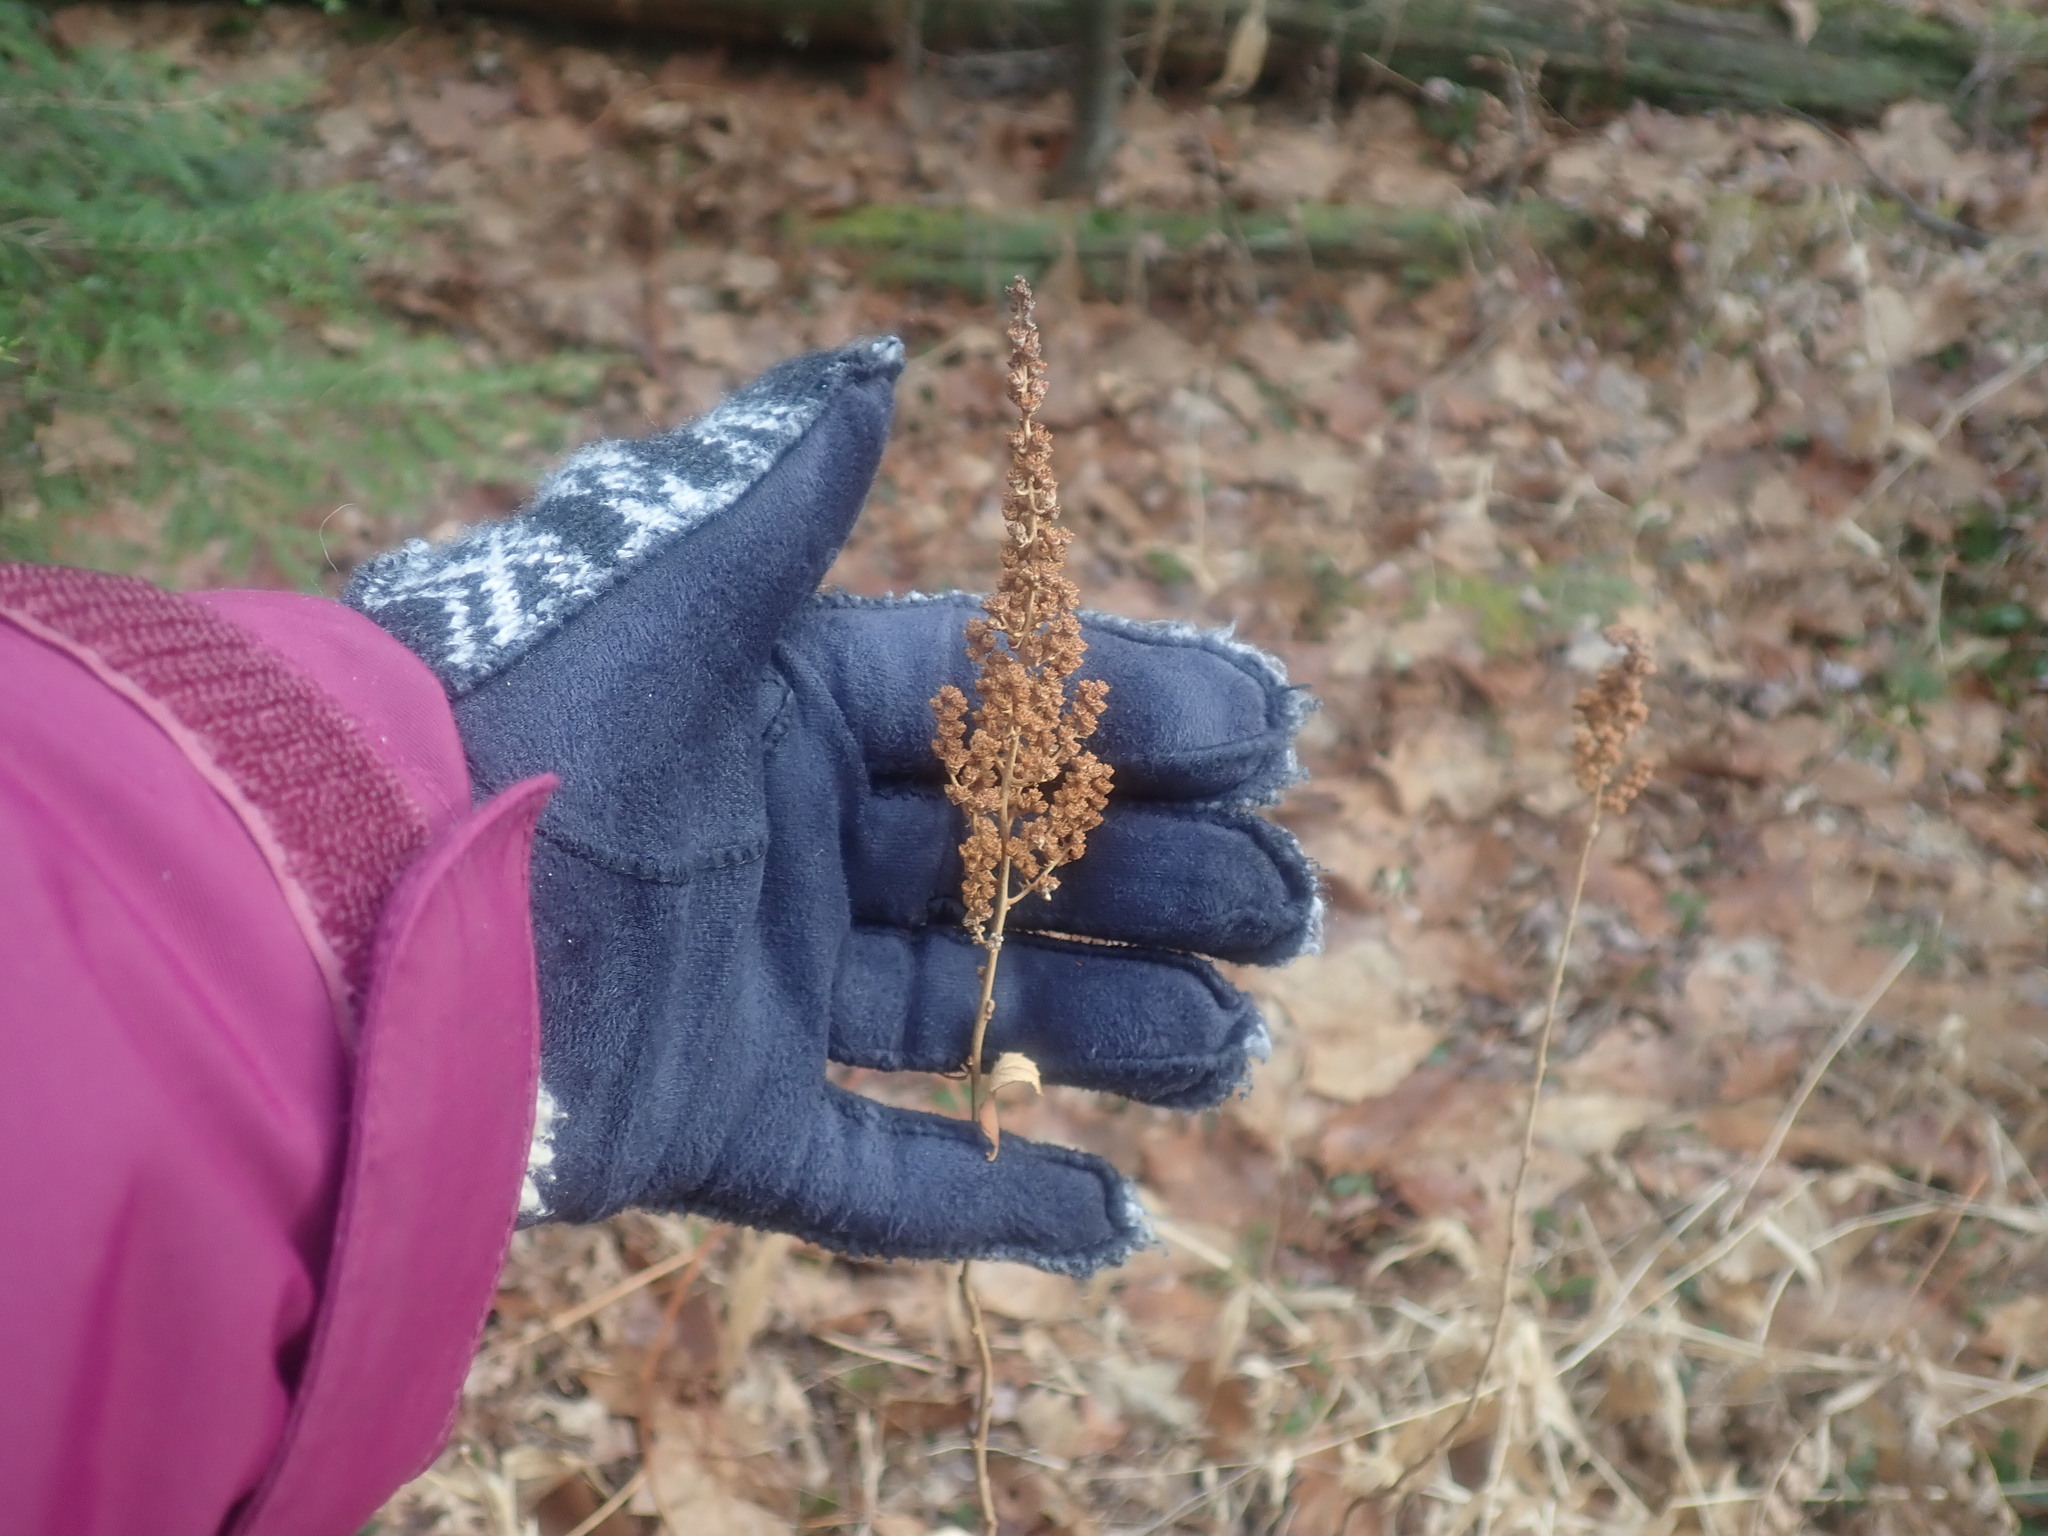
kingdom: Plantae
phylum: Tracheophyta
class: Magnoliopsida
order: Rosales
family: Rosaceae
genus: Spiraea
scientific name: Spiraea tomentosa
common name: Hardhack
